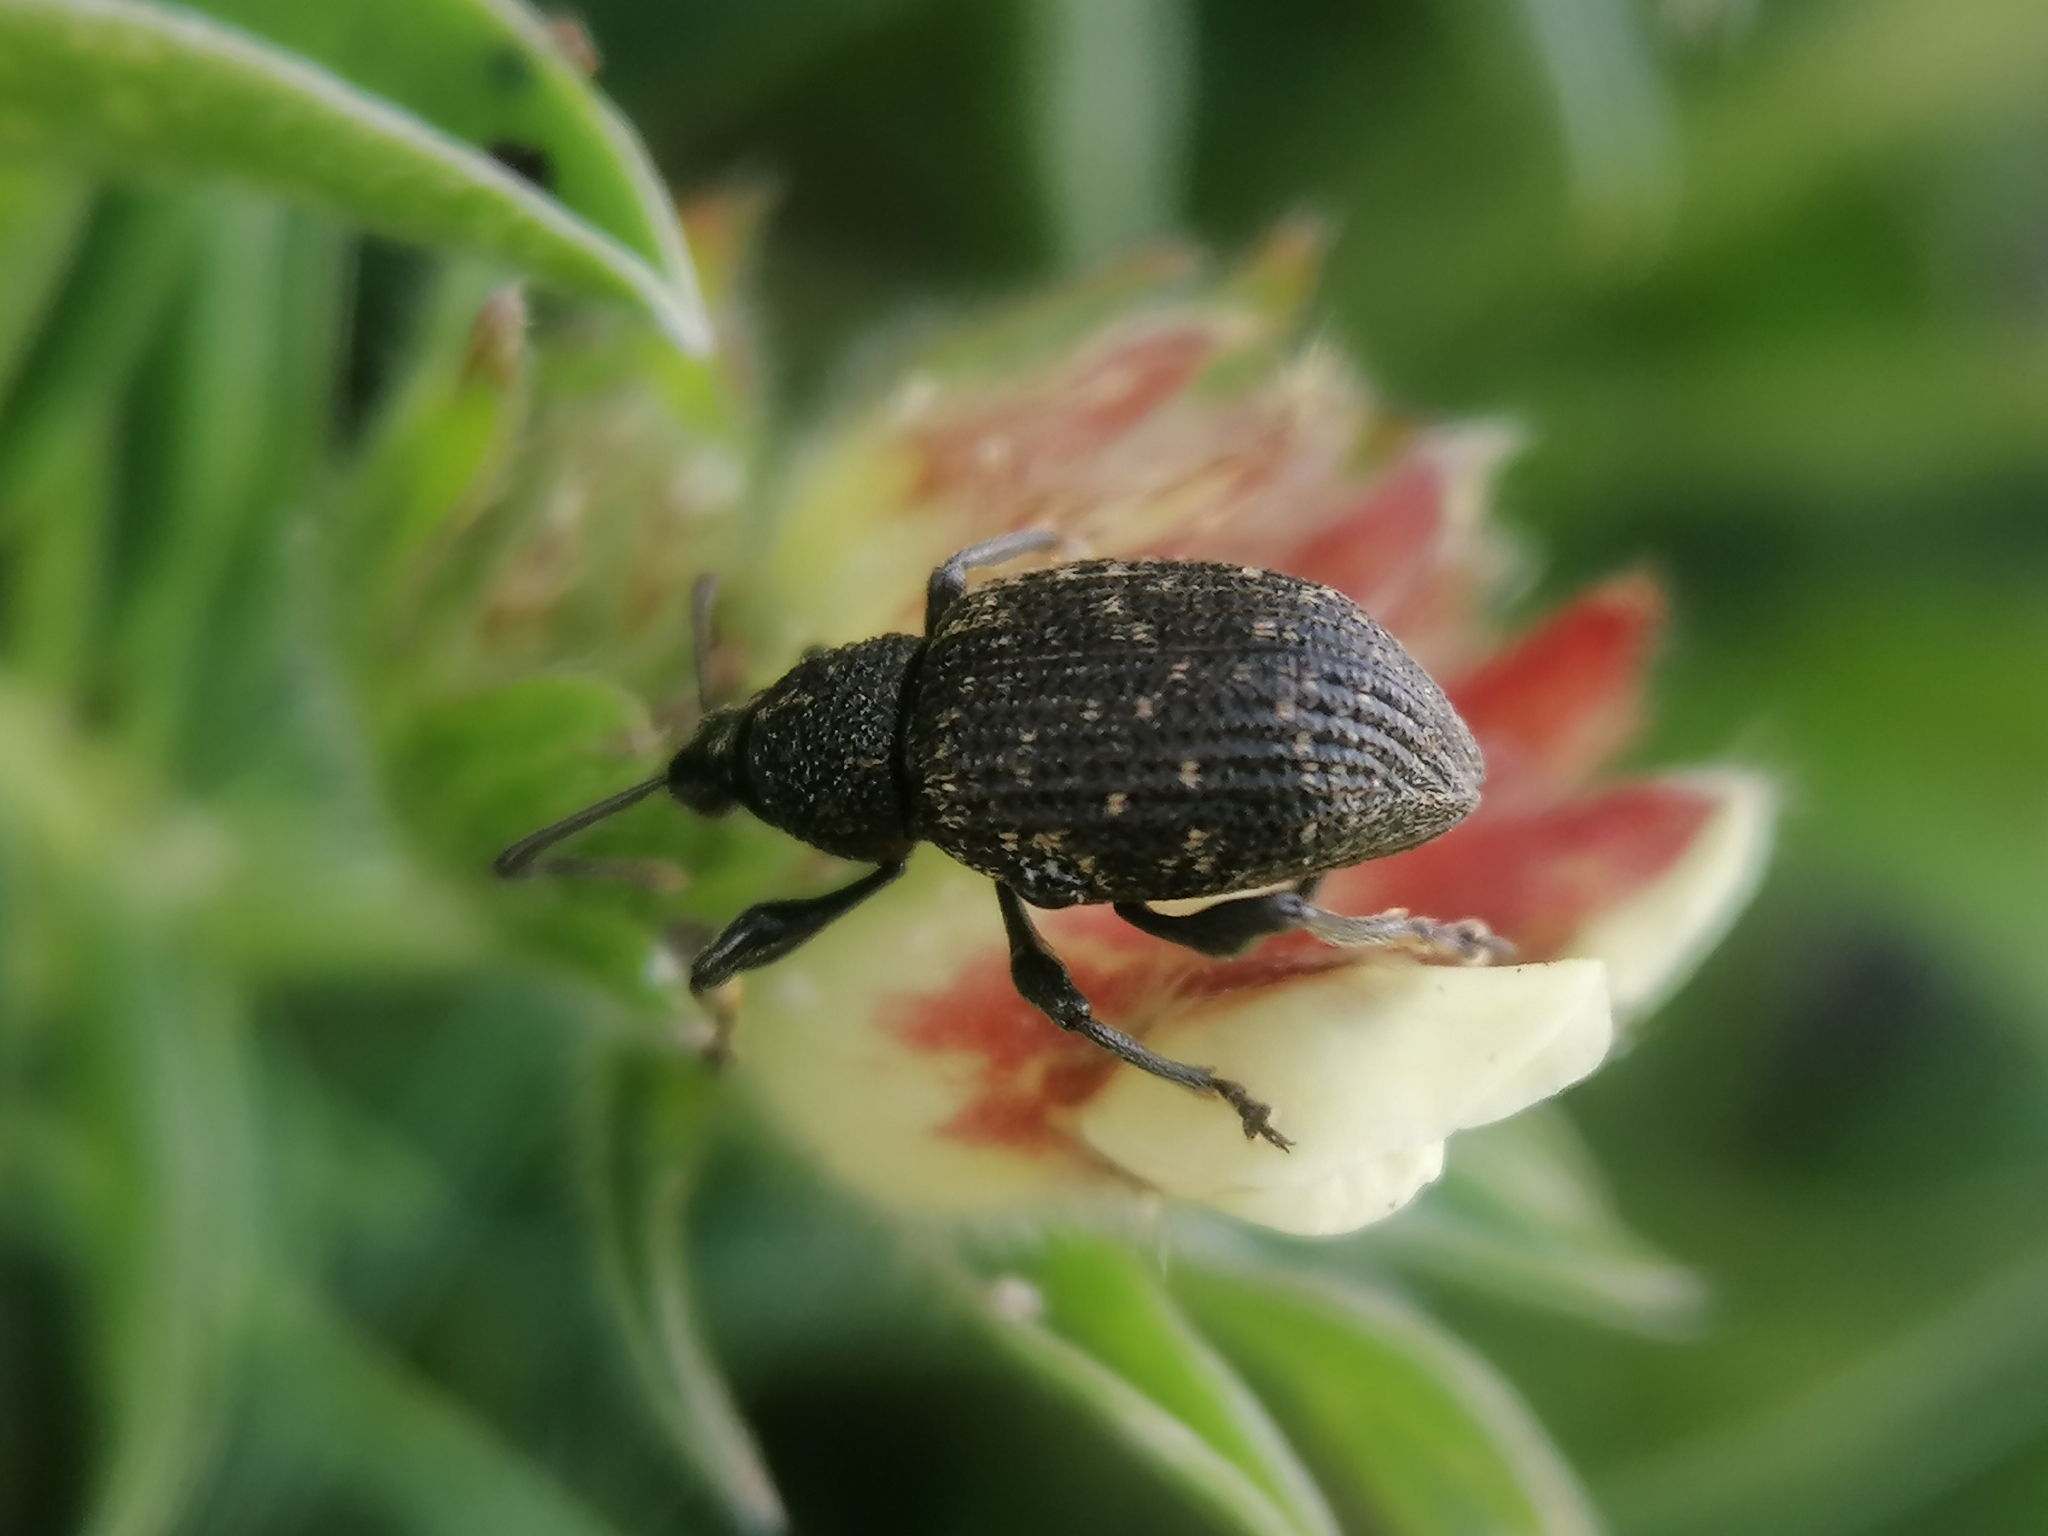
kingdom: Animalia
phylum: Arthropoda
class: Insecta
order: Coleoptera
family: Curculionidae
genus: Otiorhynchus
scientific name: Otiorhynchus sulcatus
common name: Black vine weevil
